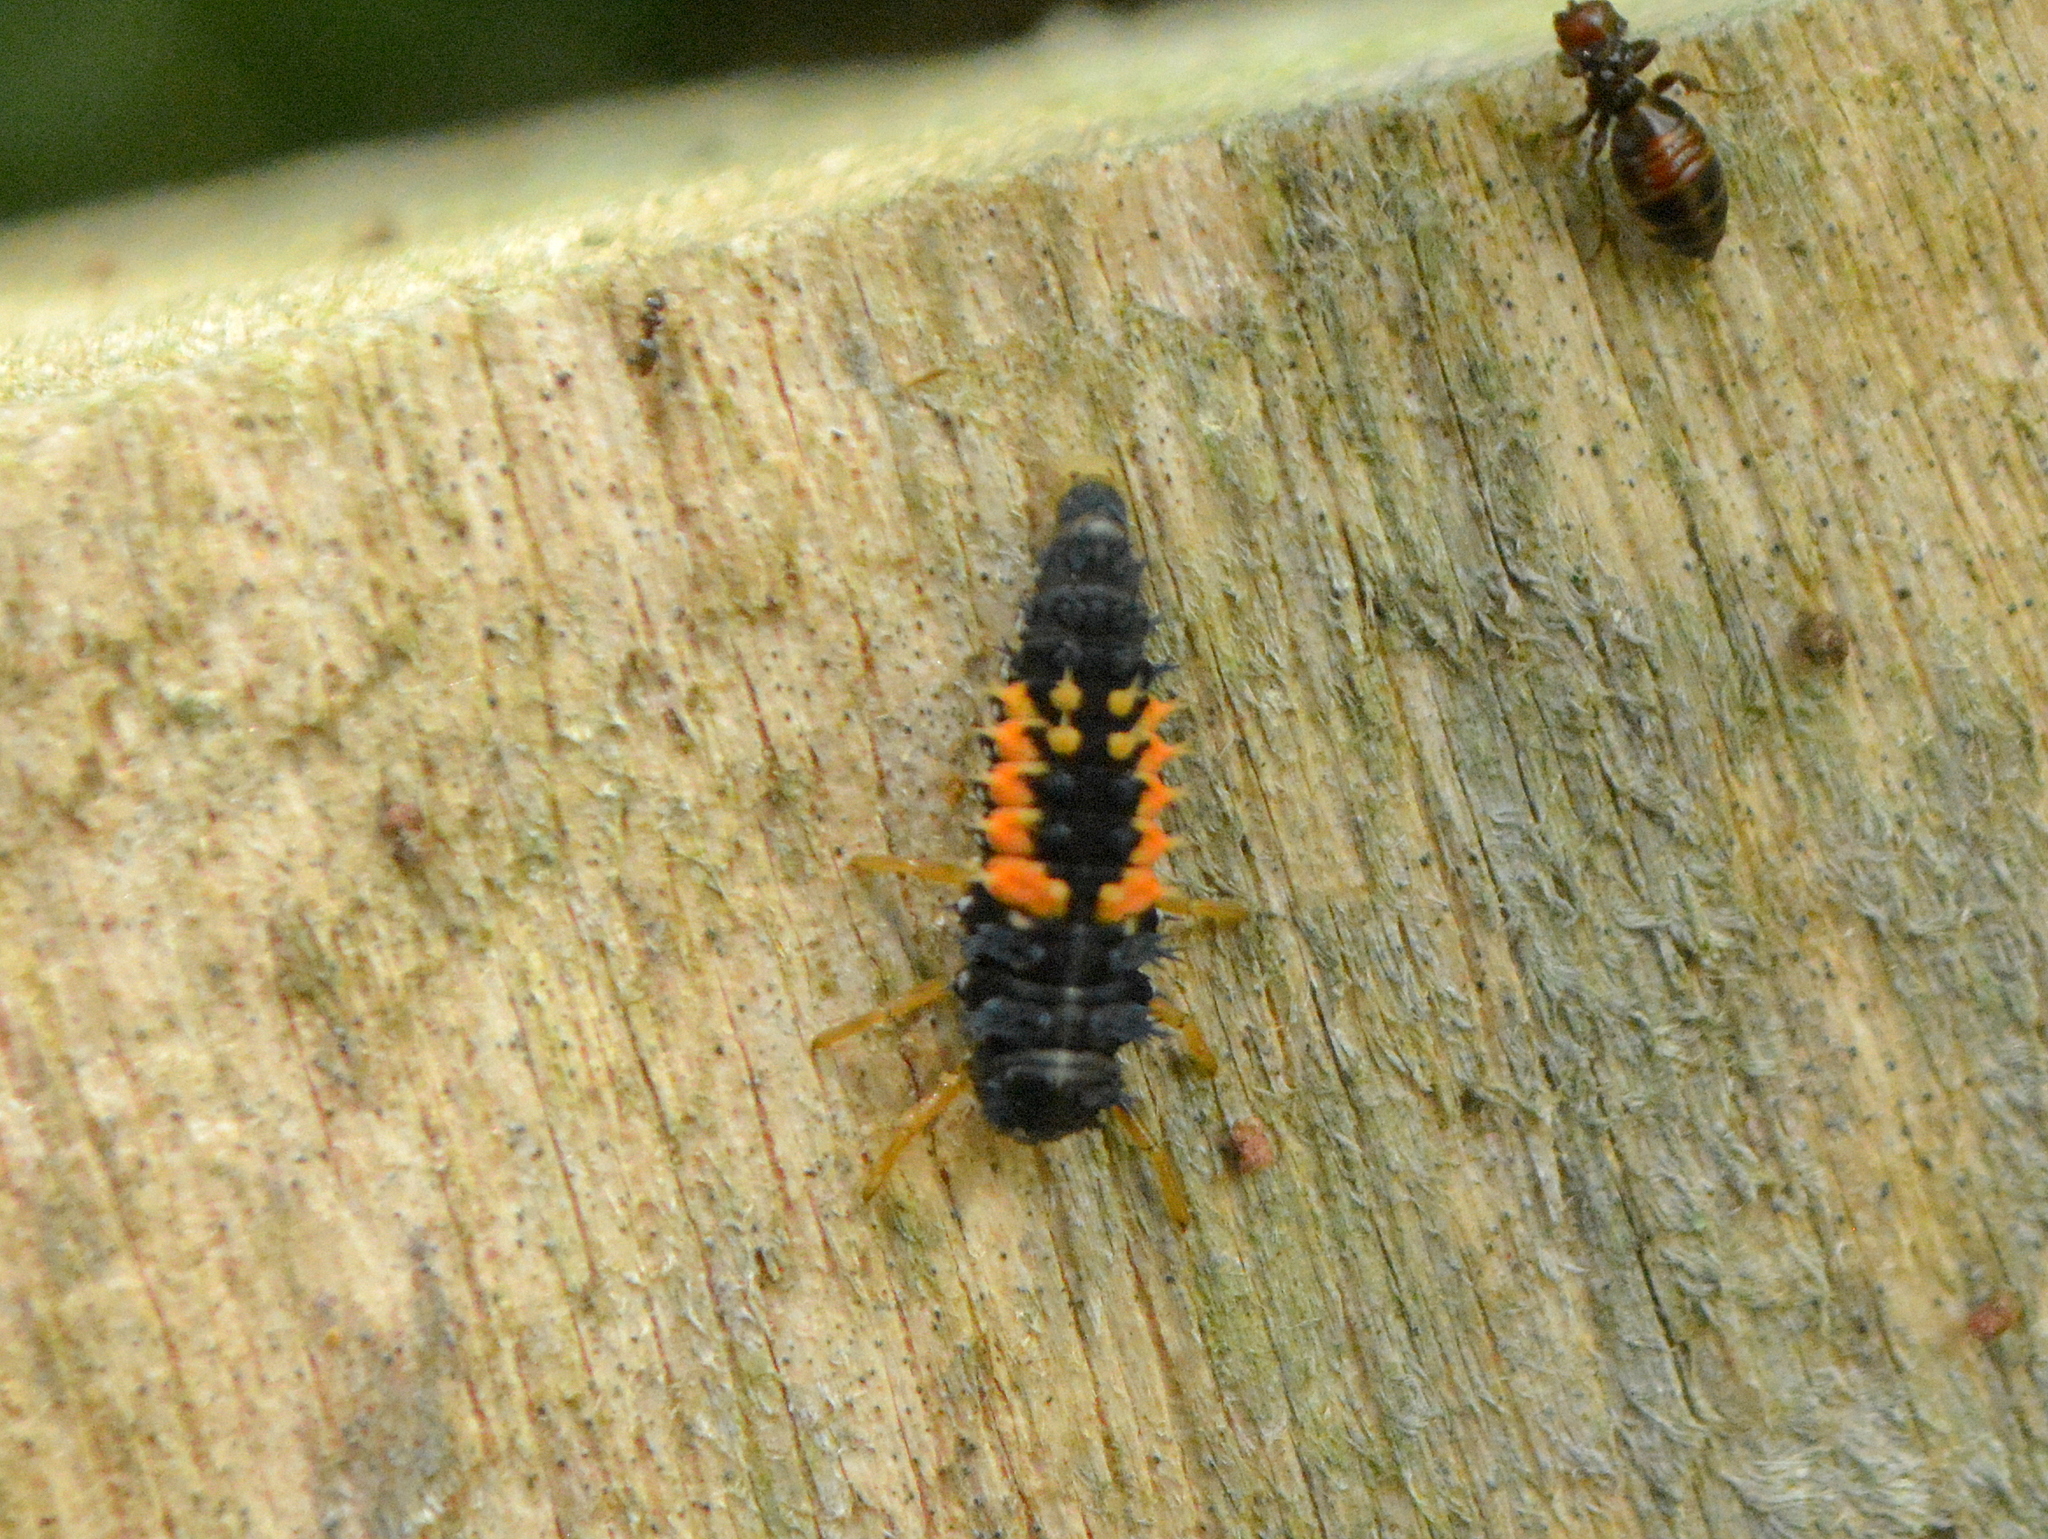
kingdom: Animalia
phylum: Arthropoda
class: Insecta
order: Coleoptera
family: Coccinellidae
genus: Harmonia
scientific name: Harmonia axyridis
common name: Harlequin ladybird
